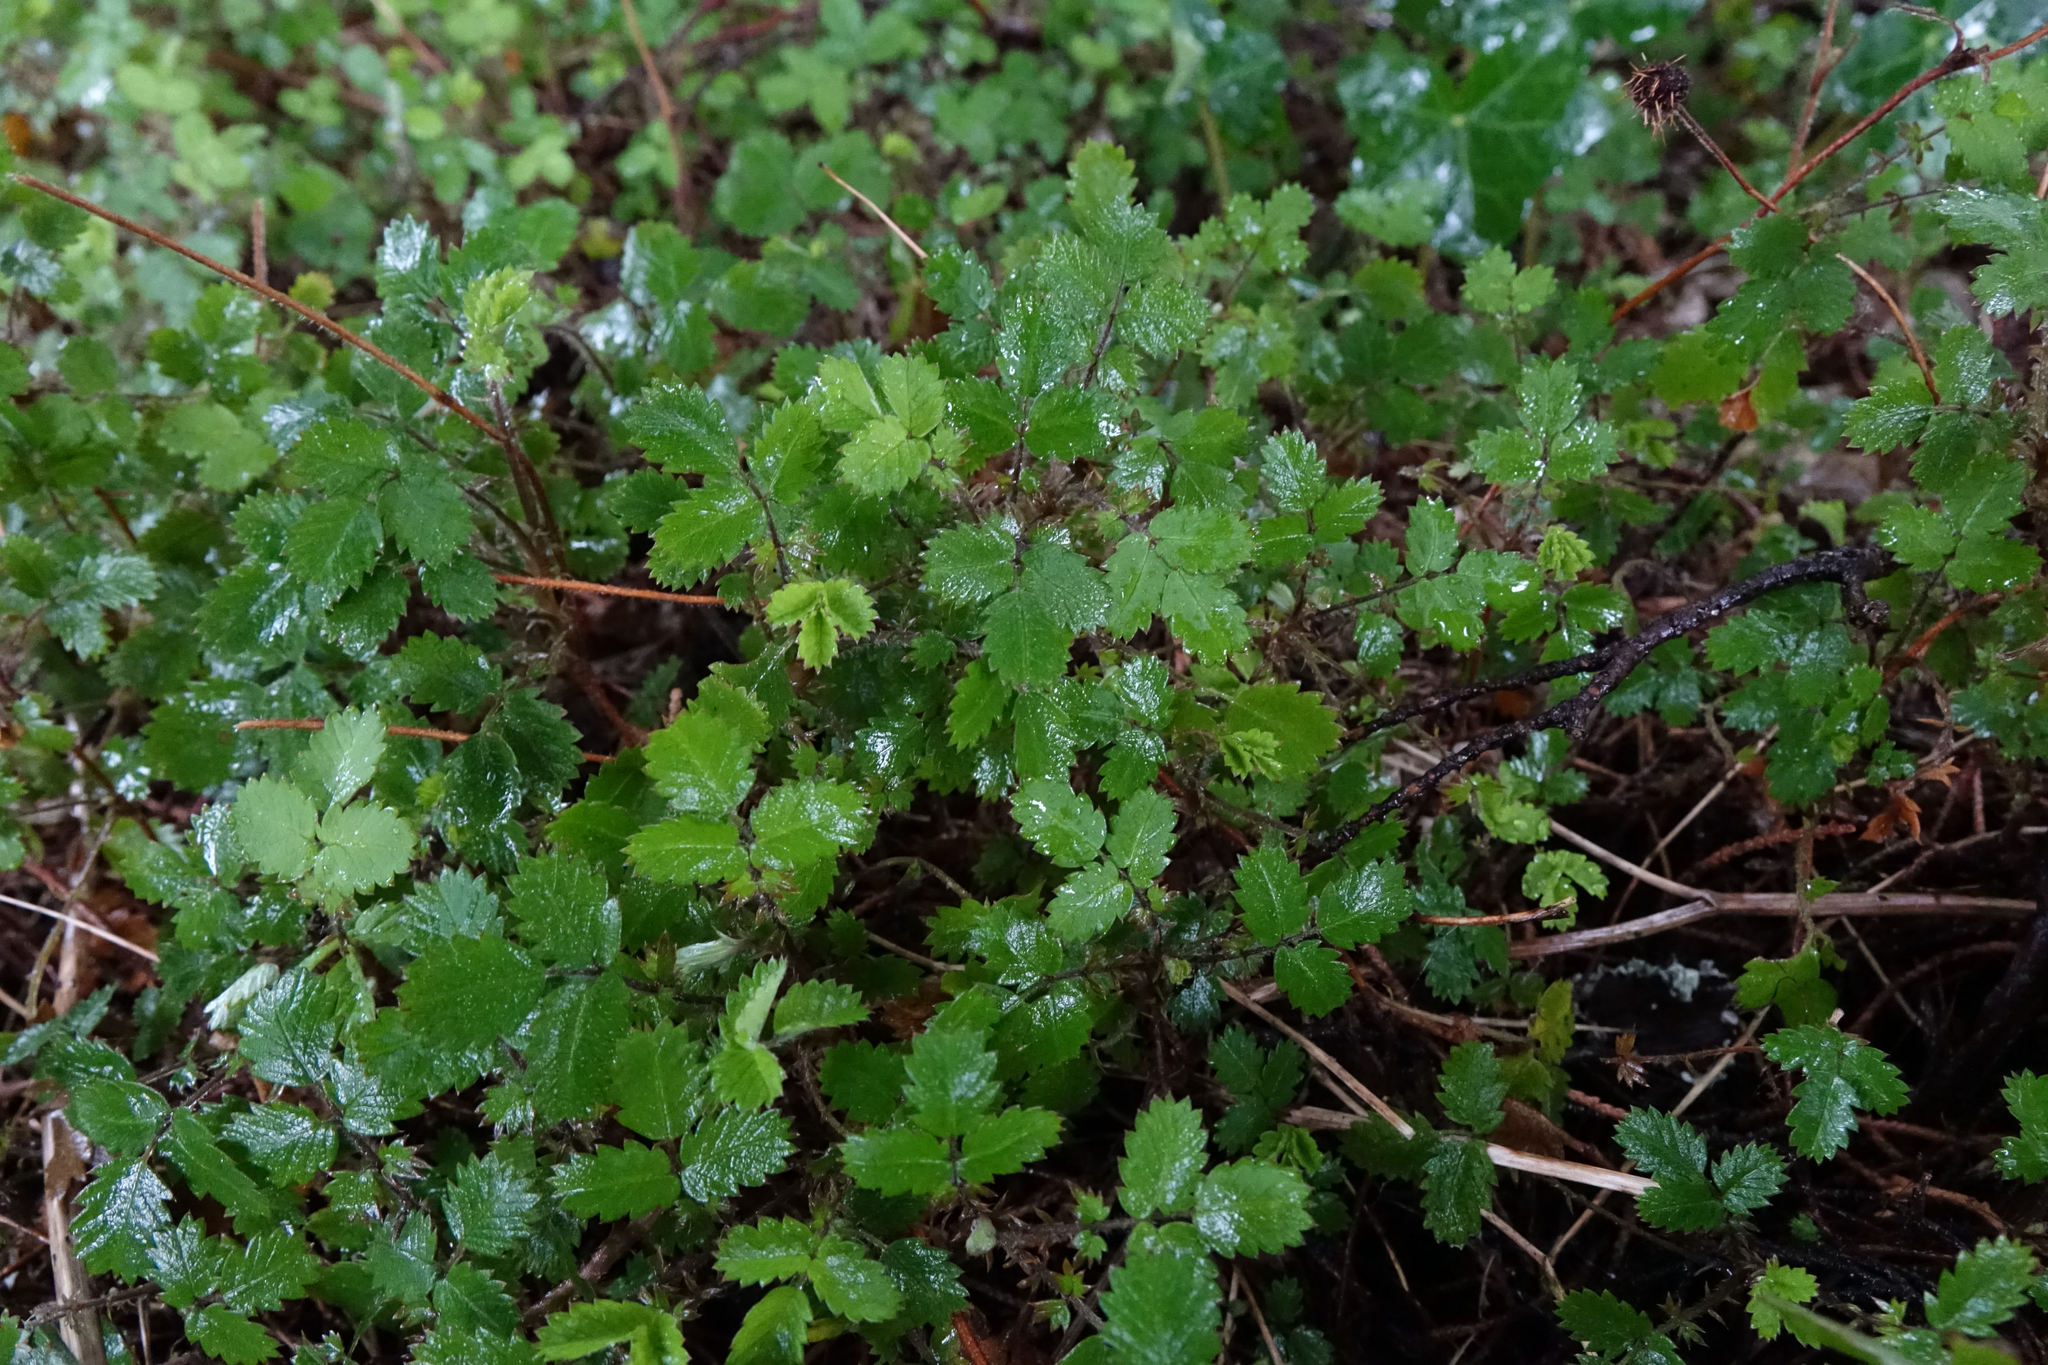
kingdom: Plantae
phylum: Tracheophyta
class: Magnoliopsida
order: Rosales
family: Rosaceae
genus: Acaena
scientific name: Acaena juvenca
